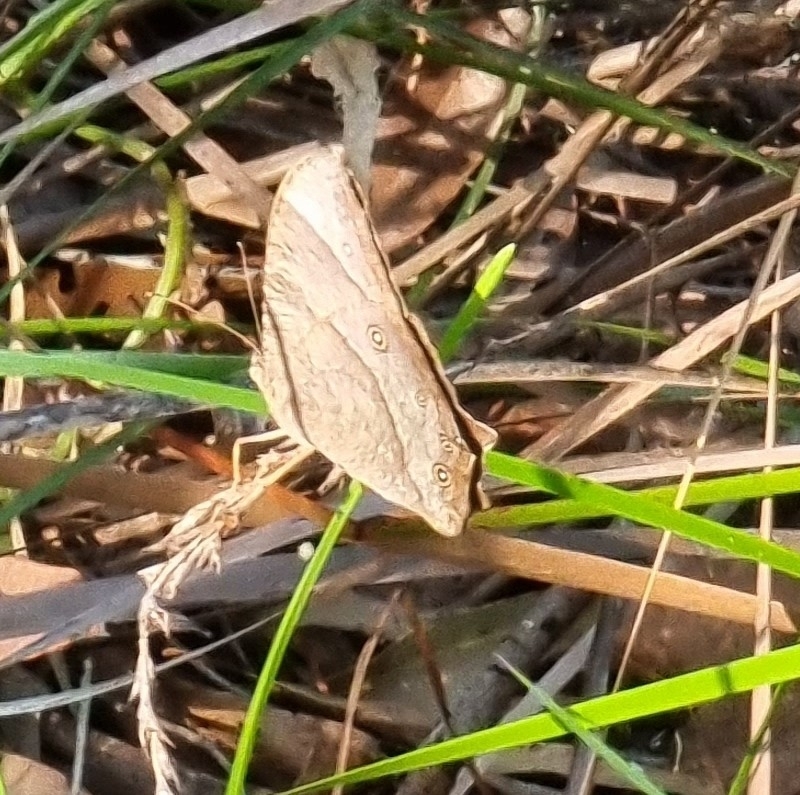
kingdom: Animalia
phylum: Arthropoda
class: Insecta
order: Lepidoptera
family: Nymphalidae
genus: Melanitis
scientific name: Melanitis leda
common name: Twilight brown
